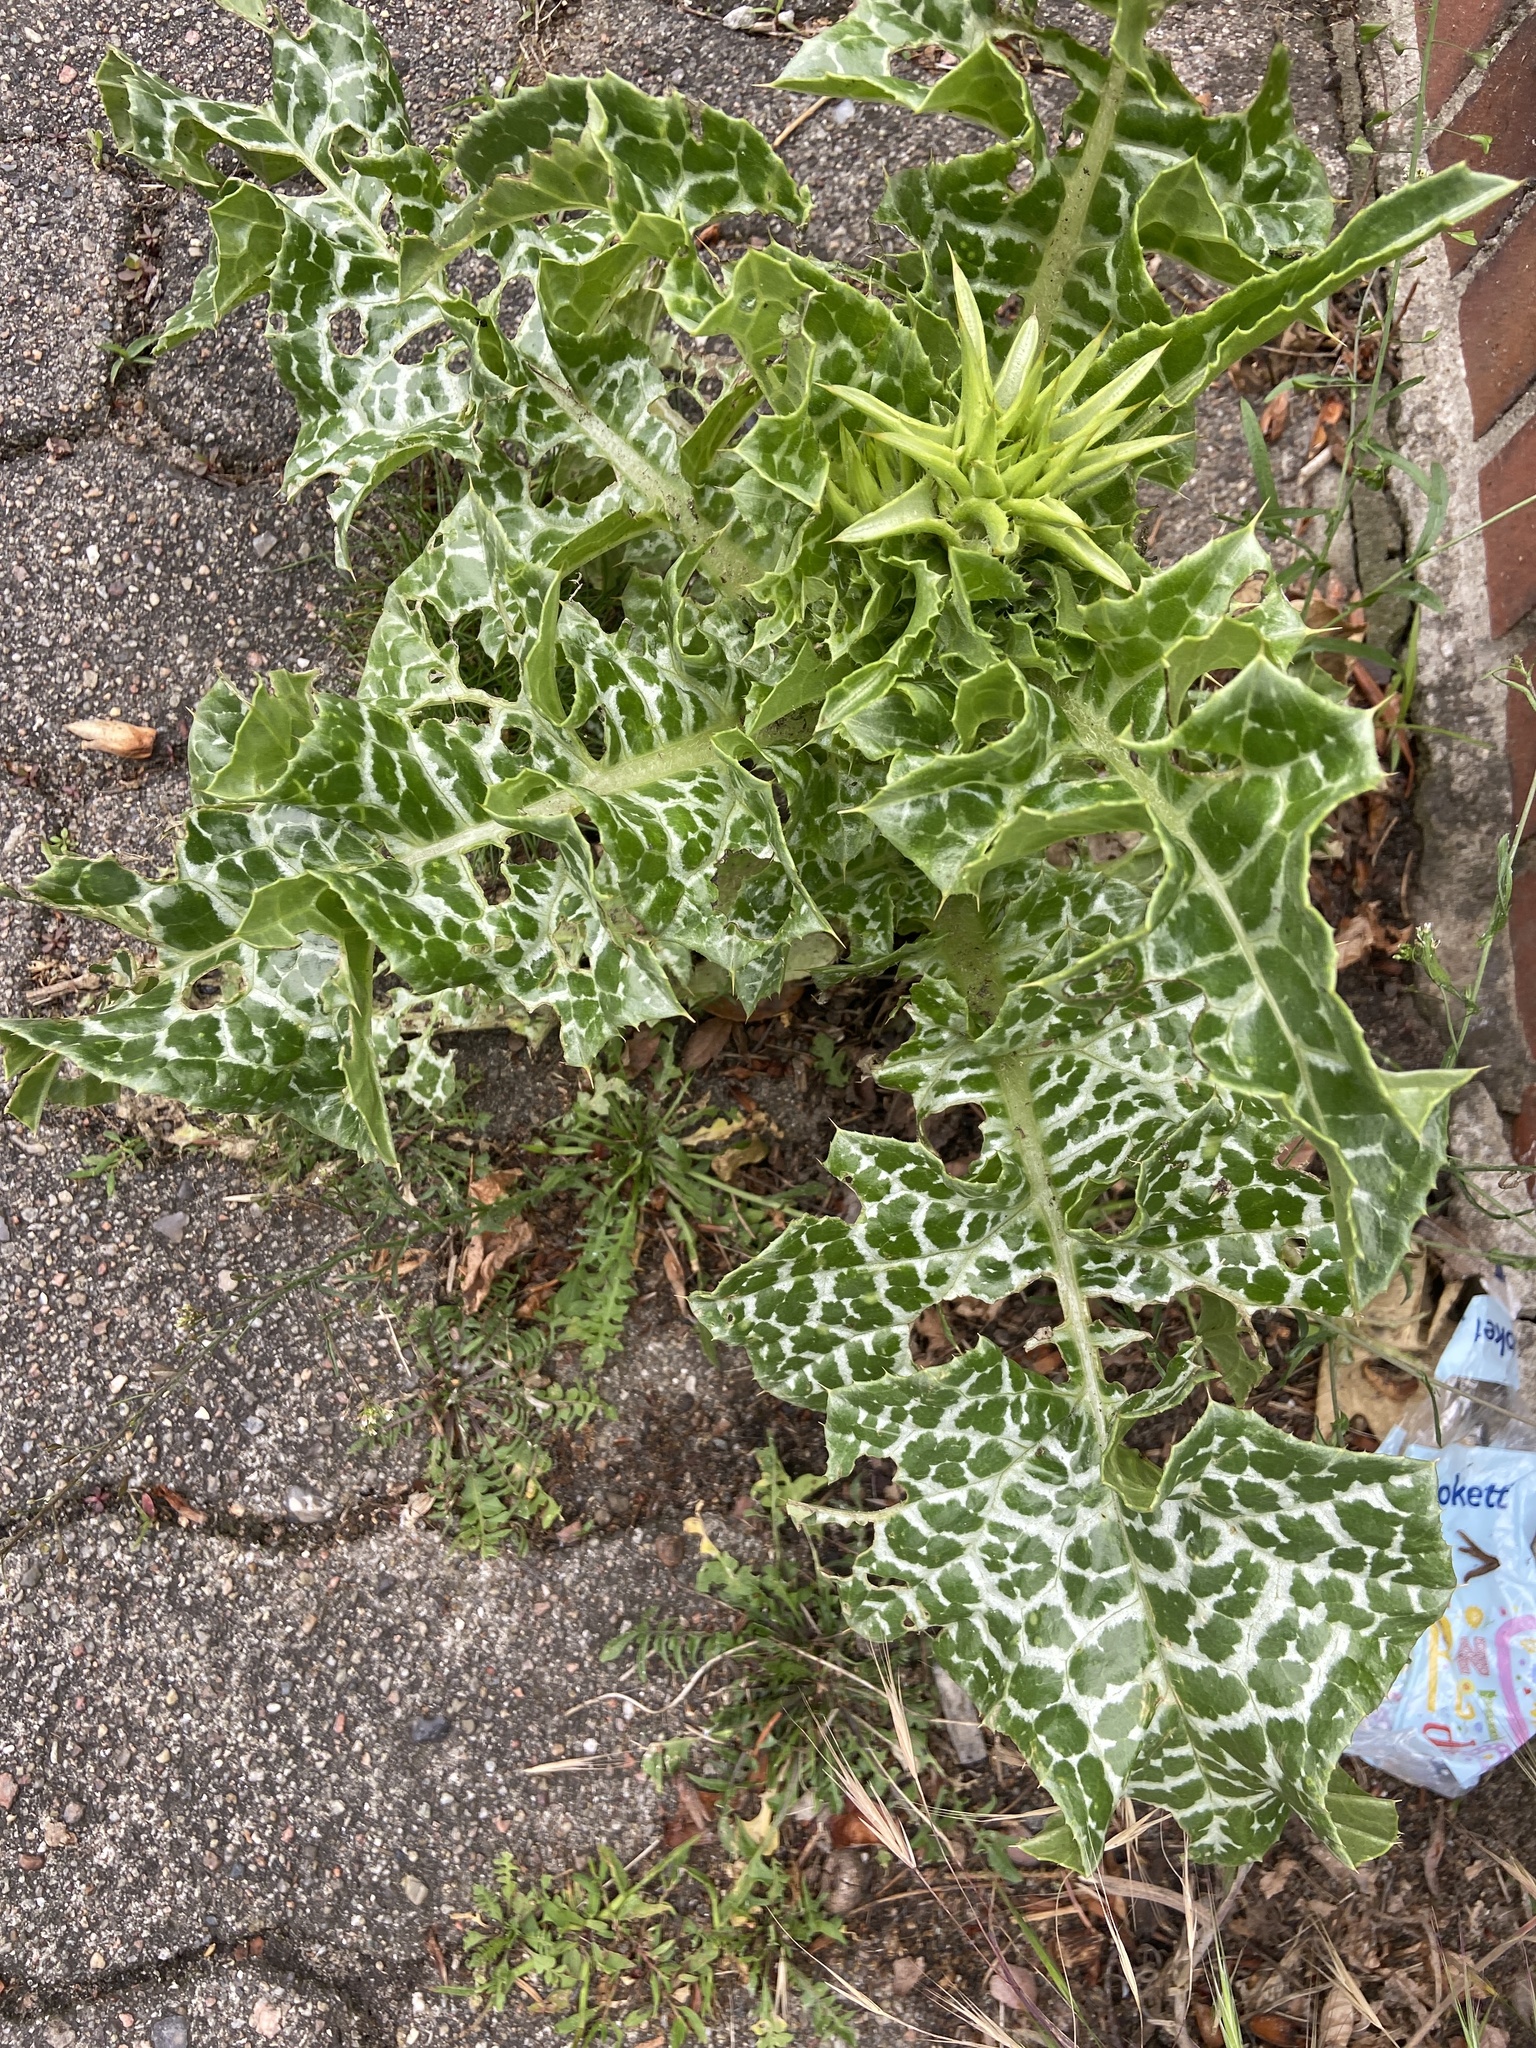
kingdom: Plantae
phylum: Tracheophyta
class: Magnoliopsida
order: Asterales
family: Asteraceae
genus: Silybum
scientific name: Silybum marianum
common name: Milk thistle
